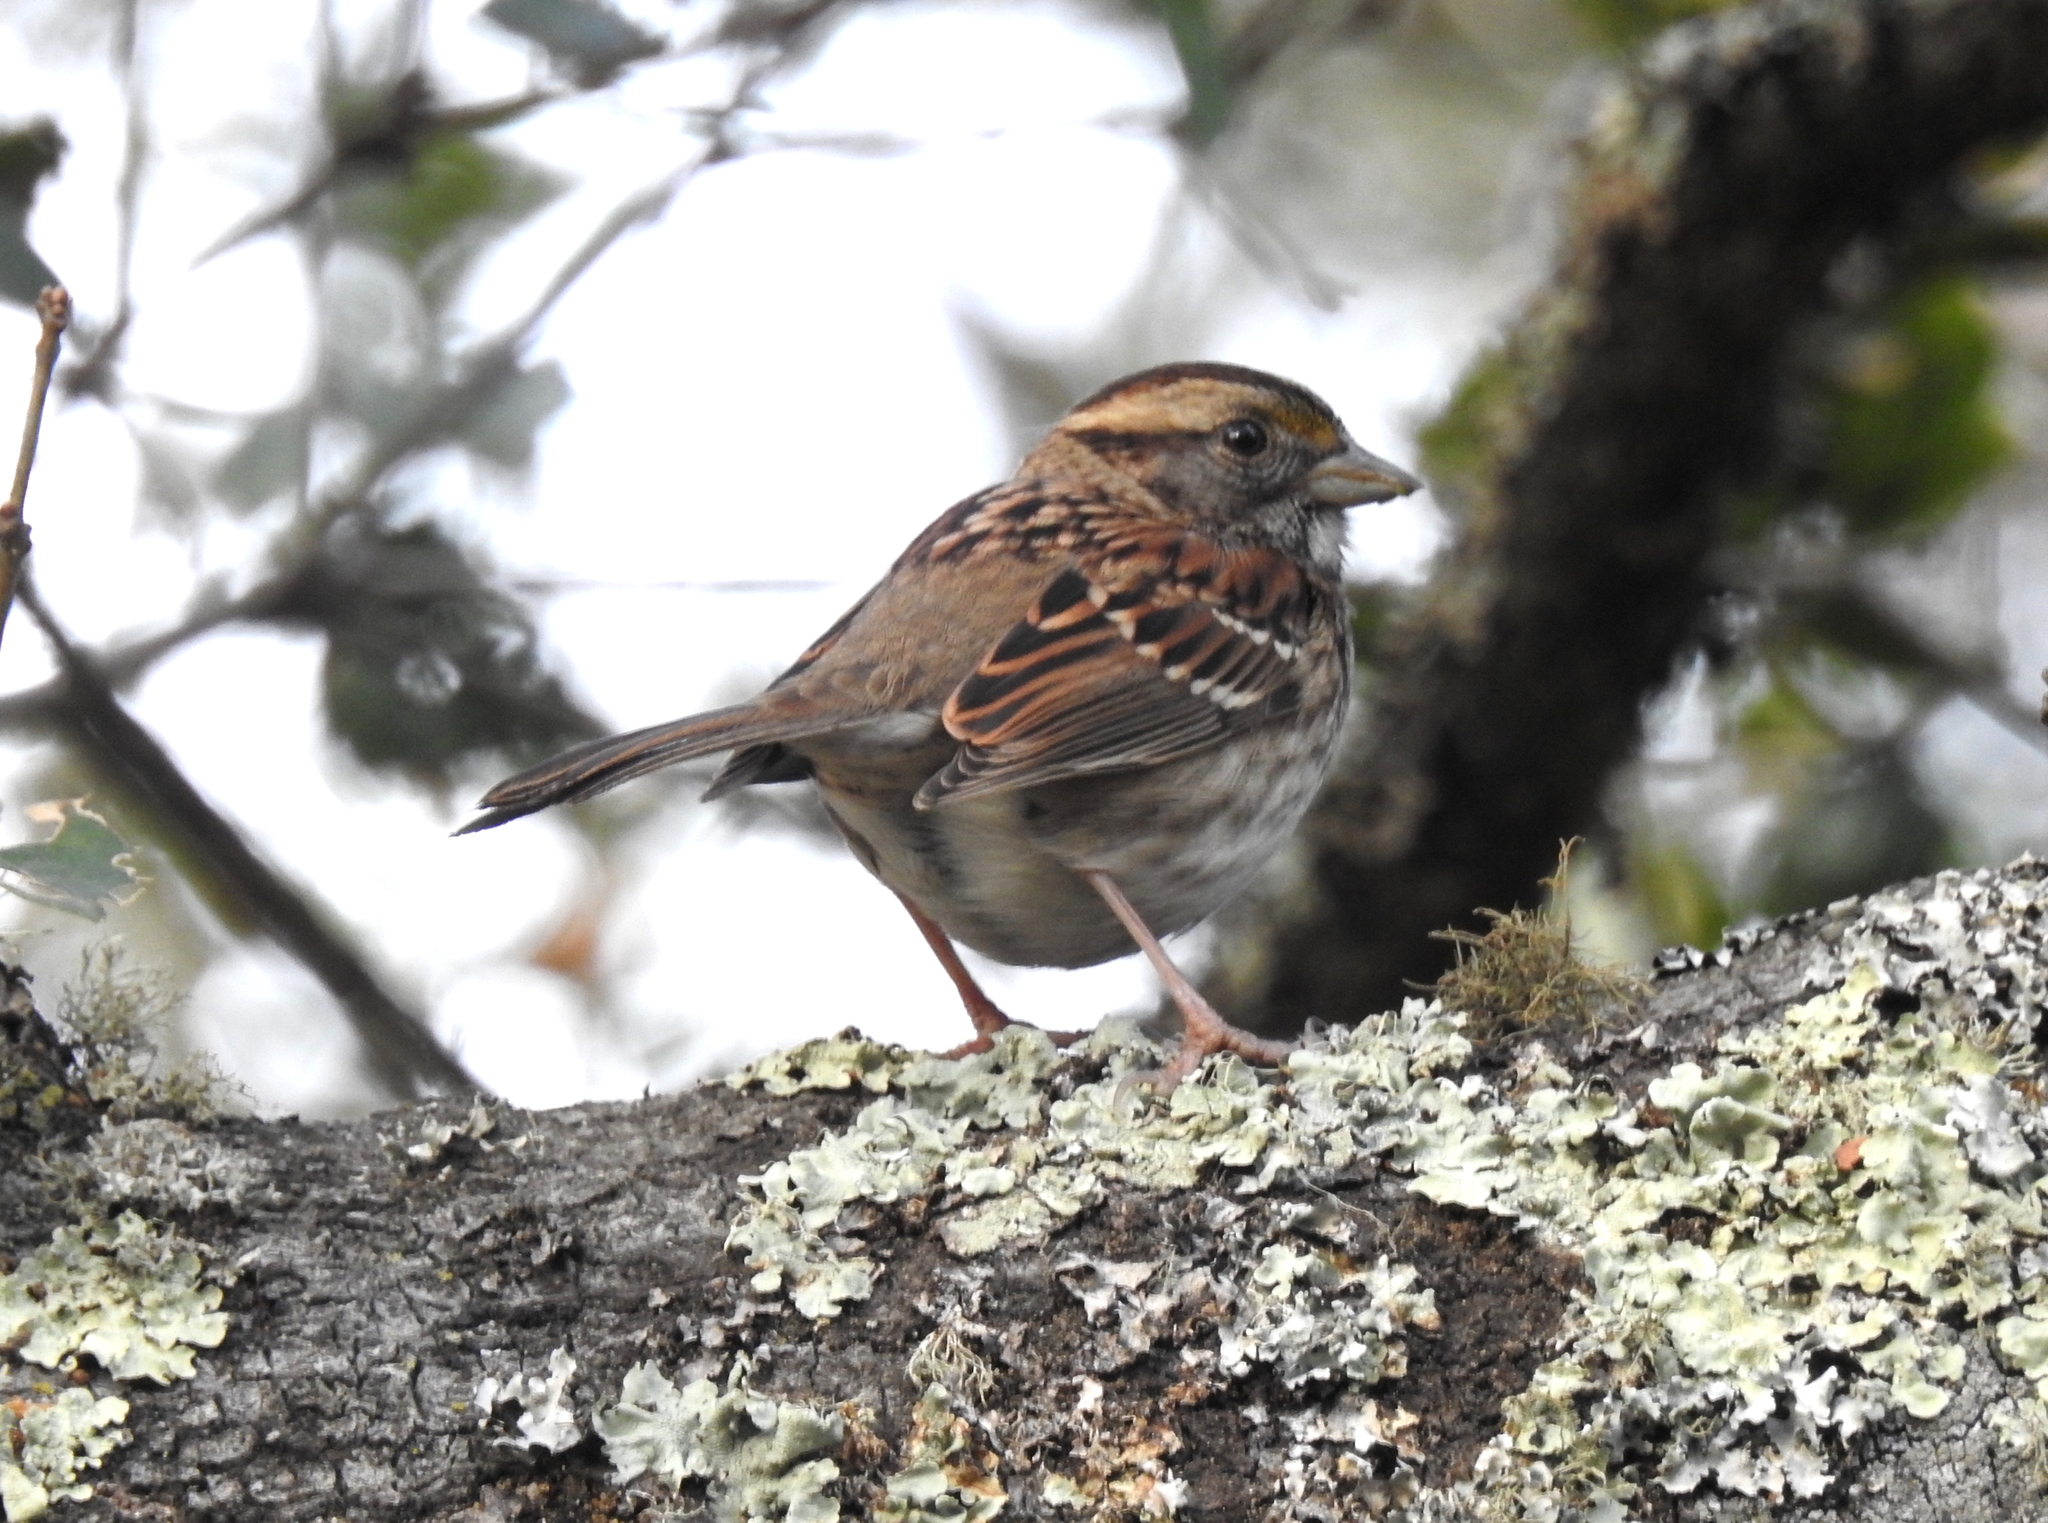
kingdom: Animalia
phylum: Chordata
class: Aves
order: Passeriformes
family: Passerellidae
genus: Zonotrichia
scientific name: Zonotrichia albicollis
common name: White-throated sparrow
